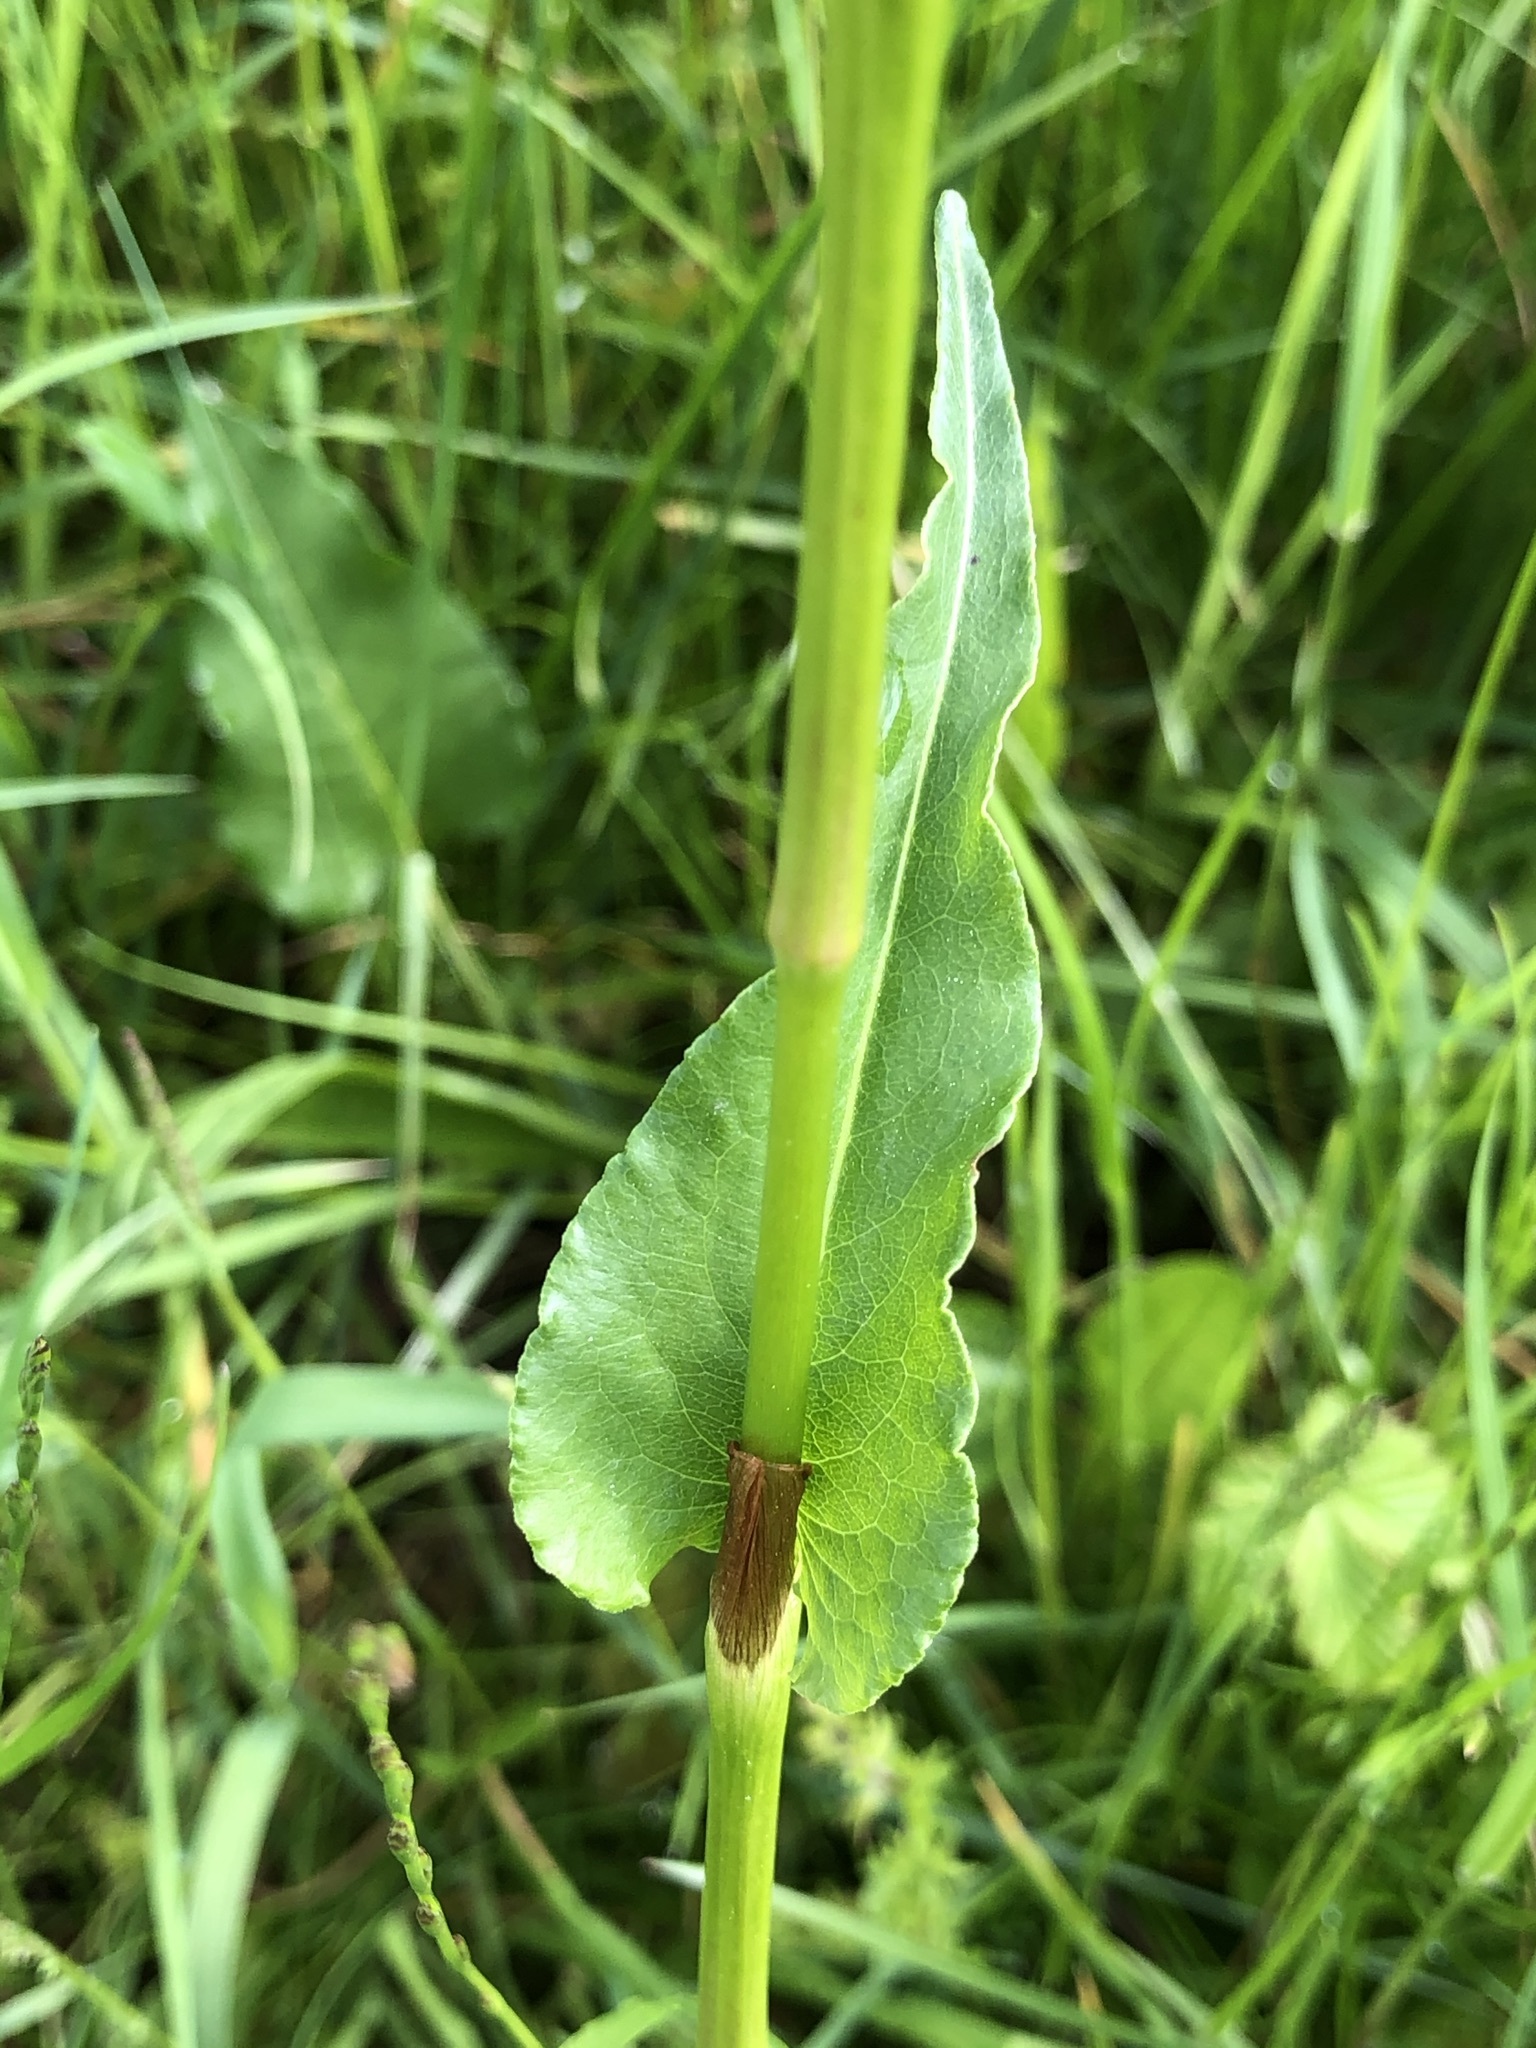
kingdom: Plantae
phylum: Tracheophyta
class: Magnoliopsida
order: Caryophyllales
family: Polygonaceae
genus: Bistorta
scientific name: Bistorta officinalis
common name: Common bistort
